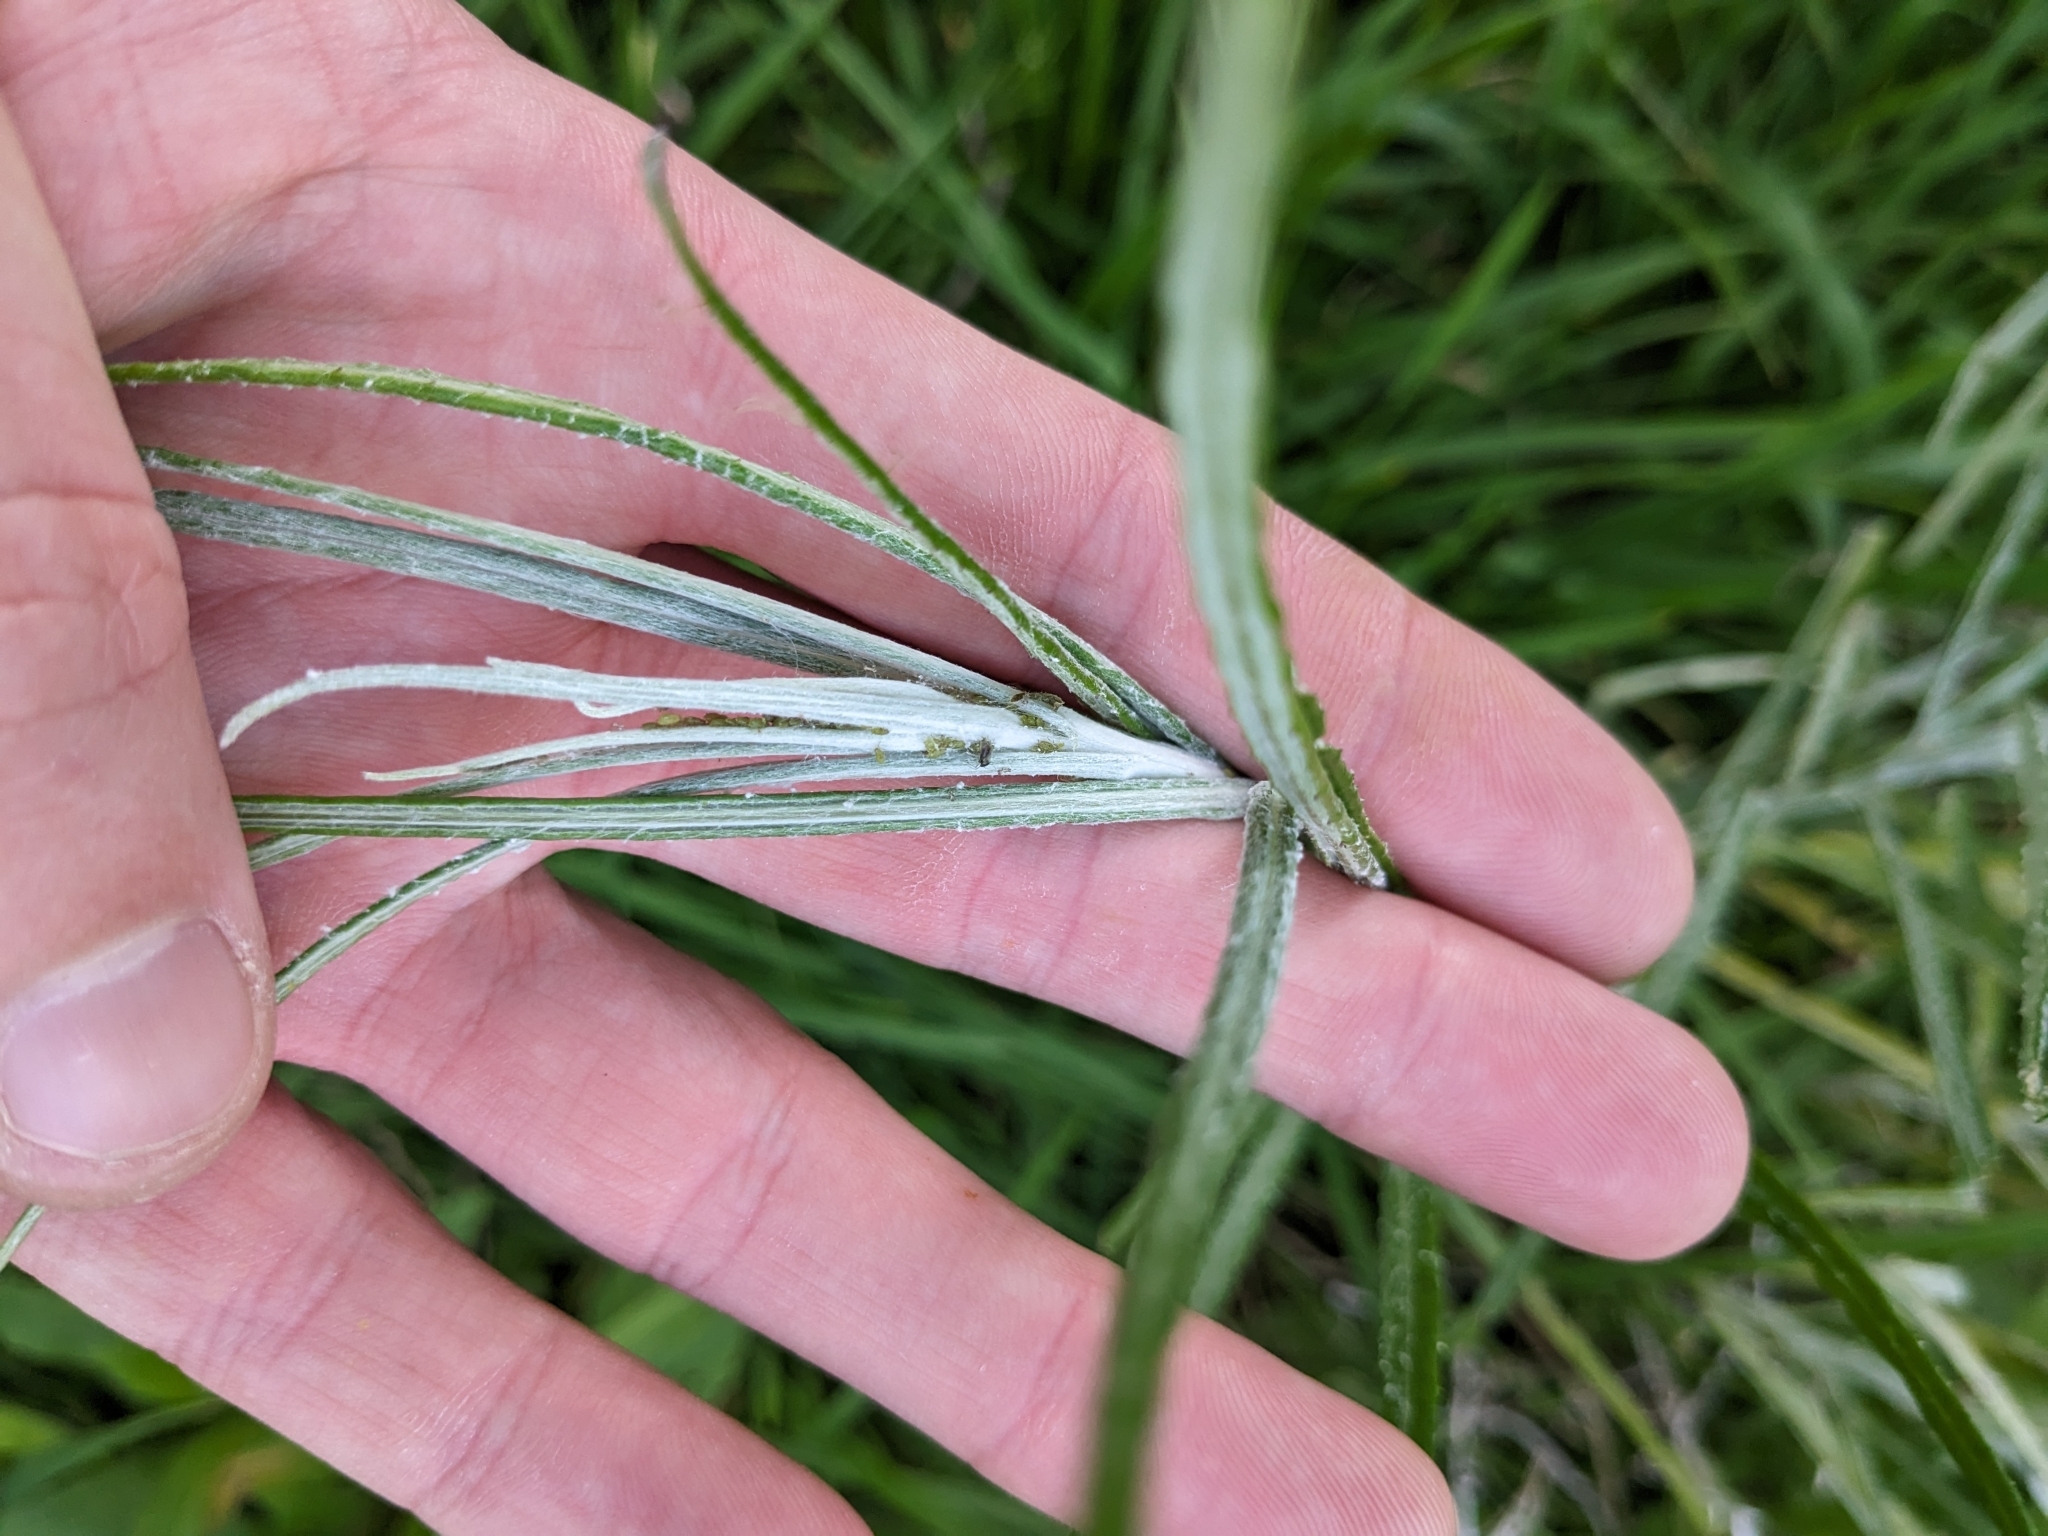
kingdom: Plantae
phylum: Tracheophyta
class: Magnoliopsida
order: Asterales
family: Asteraceae
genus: Senecio
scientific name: Senecio quadridentatus
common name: Cotton fireweed
